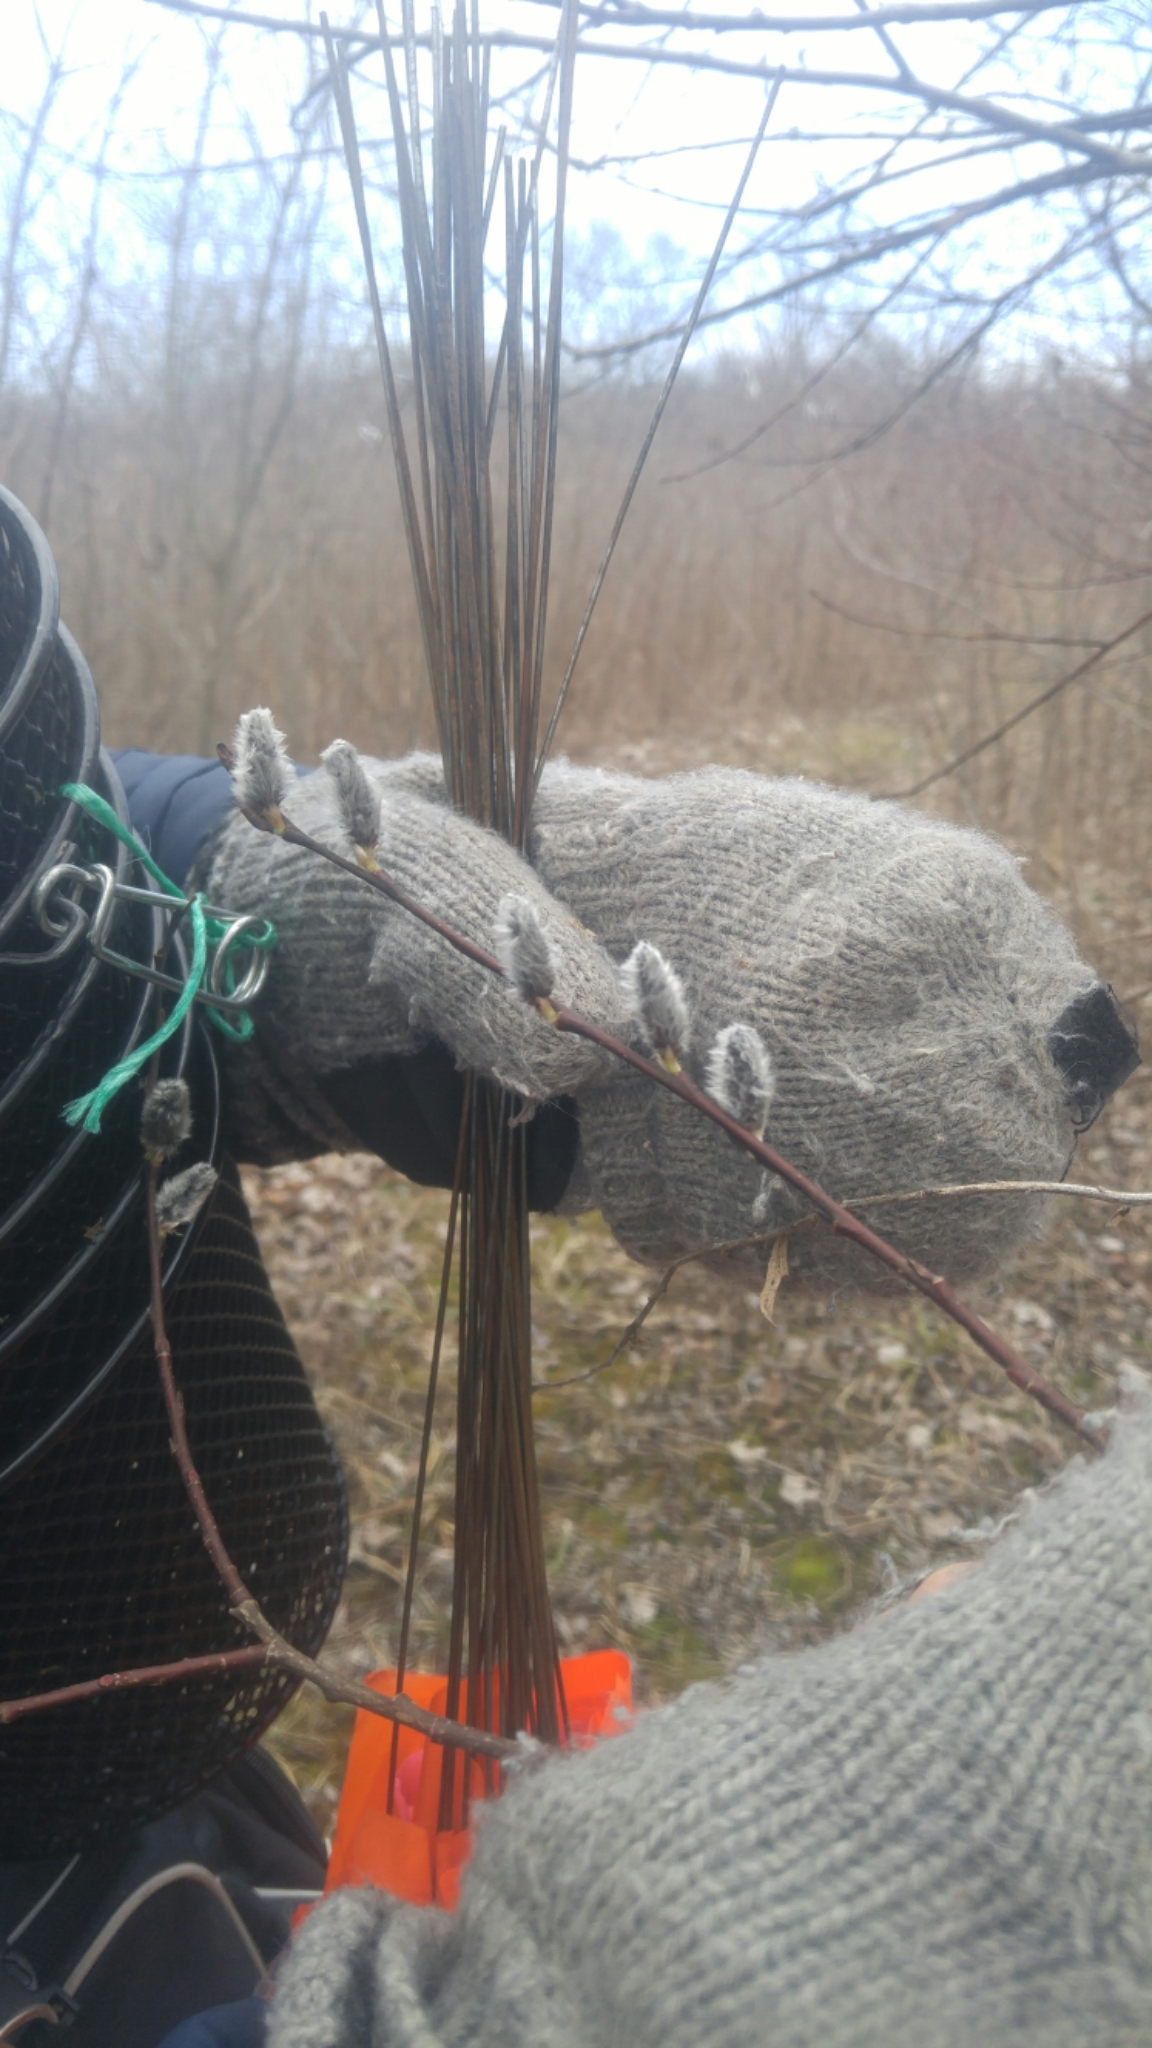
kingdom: Plantae
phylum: Tracheophyta
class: Magnoliopsida
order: Malpighiales
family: Salicaceae
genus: Salix
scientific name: Salix discolor
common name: Glaucous willow
